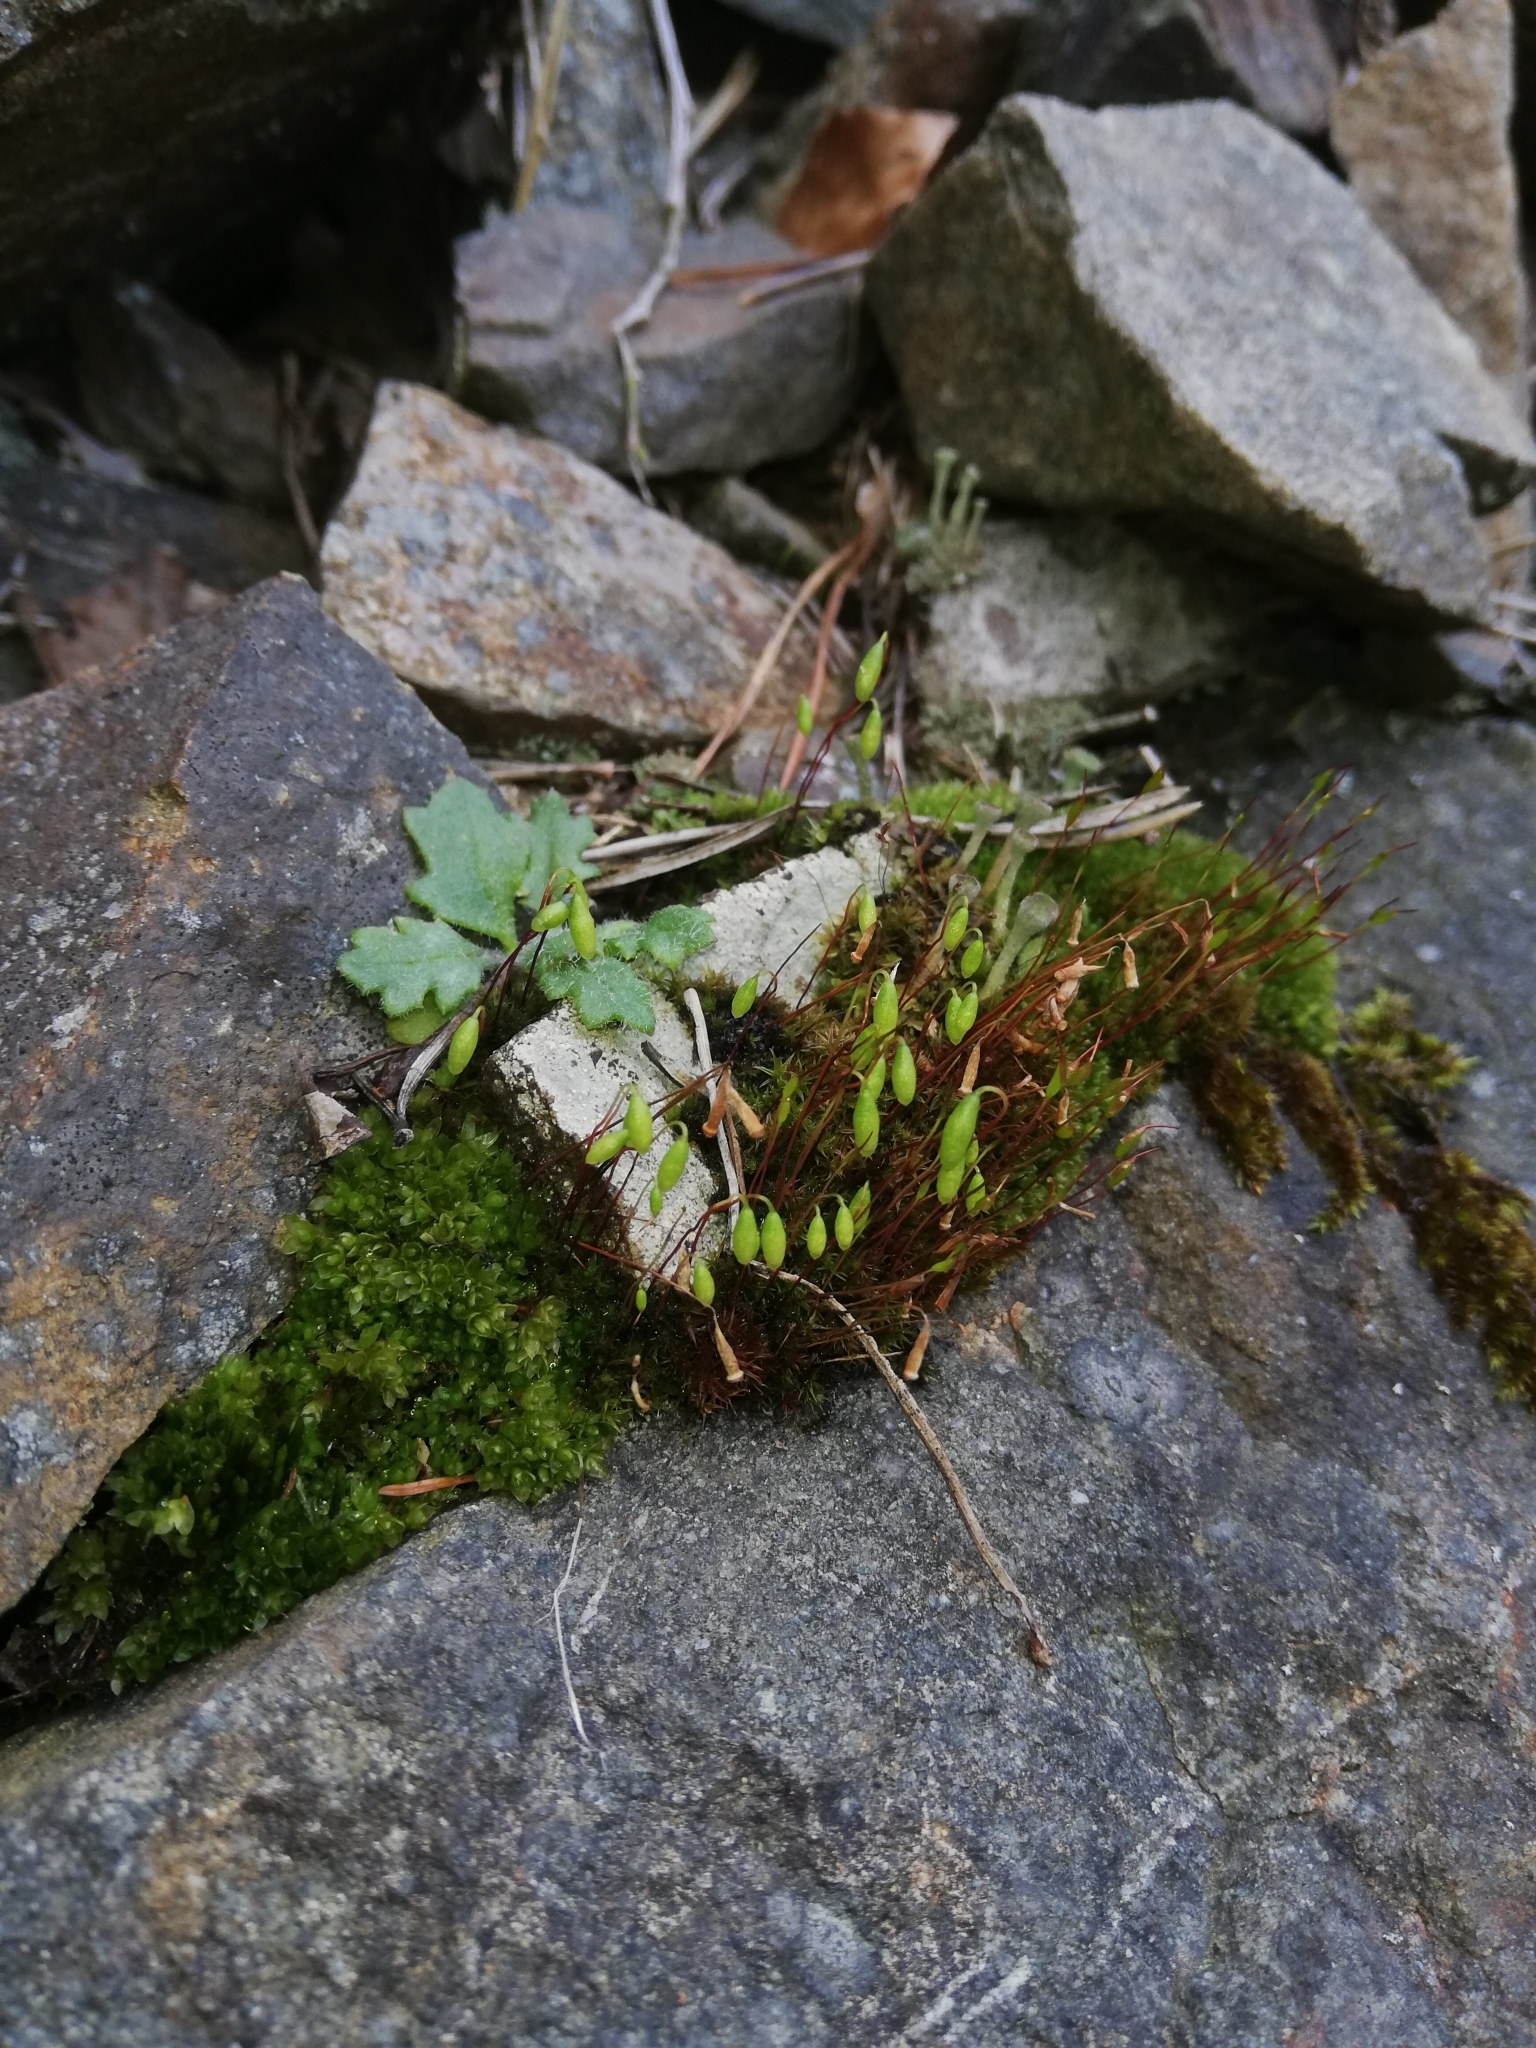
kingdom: Plantae
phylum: Bryophyta
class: Bryopsida
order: Bryales
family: Bryaceae
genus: Rosulabryum
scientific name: Rosulabryum capillare
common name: Capillary thread-moss
